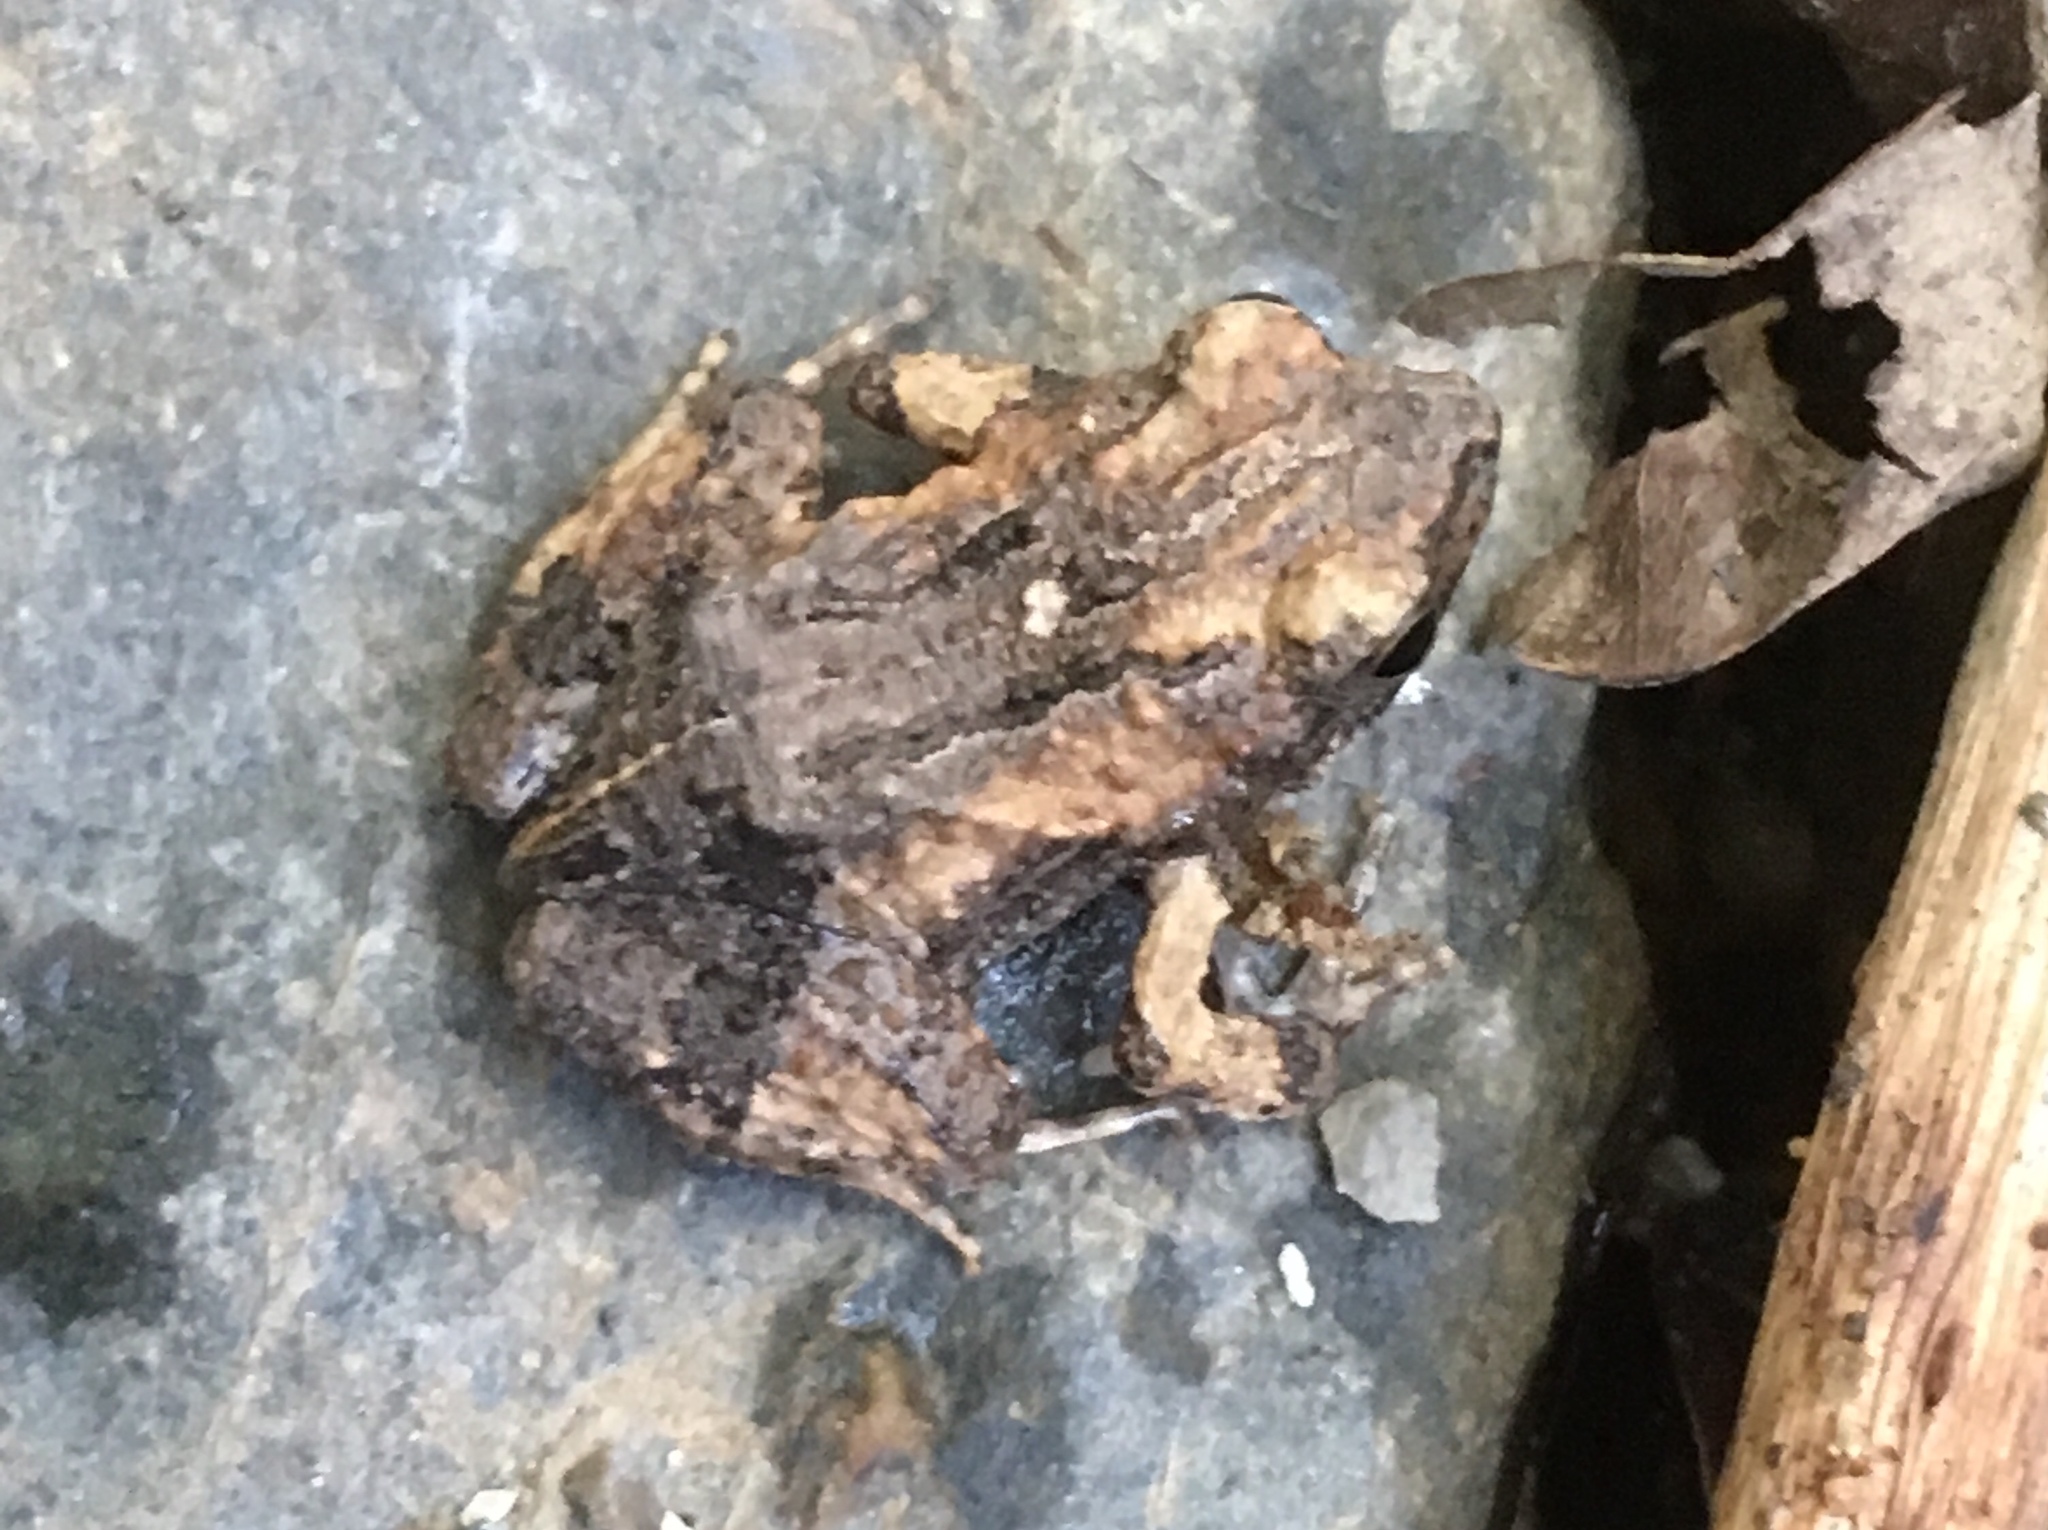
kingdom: Animalia
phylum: Chordata
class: Amphibia
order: Anura
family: Leptodactylidae
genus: Engystomops
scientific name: Engystomops pustulosus
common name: Tungara frog
